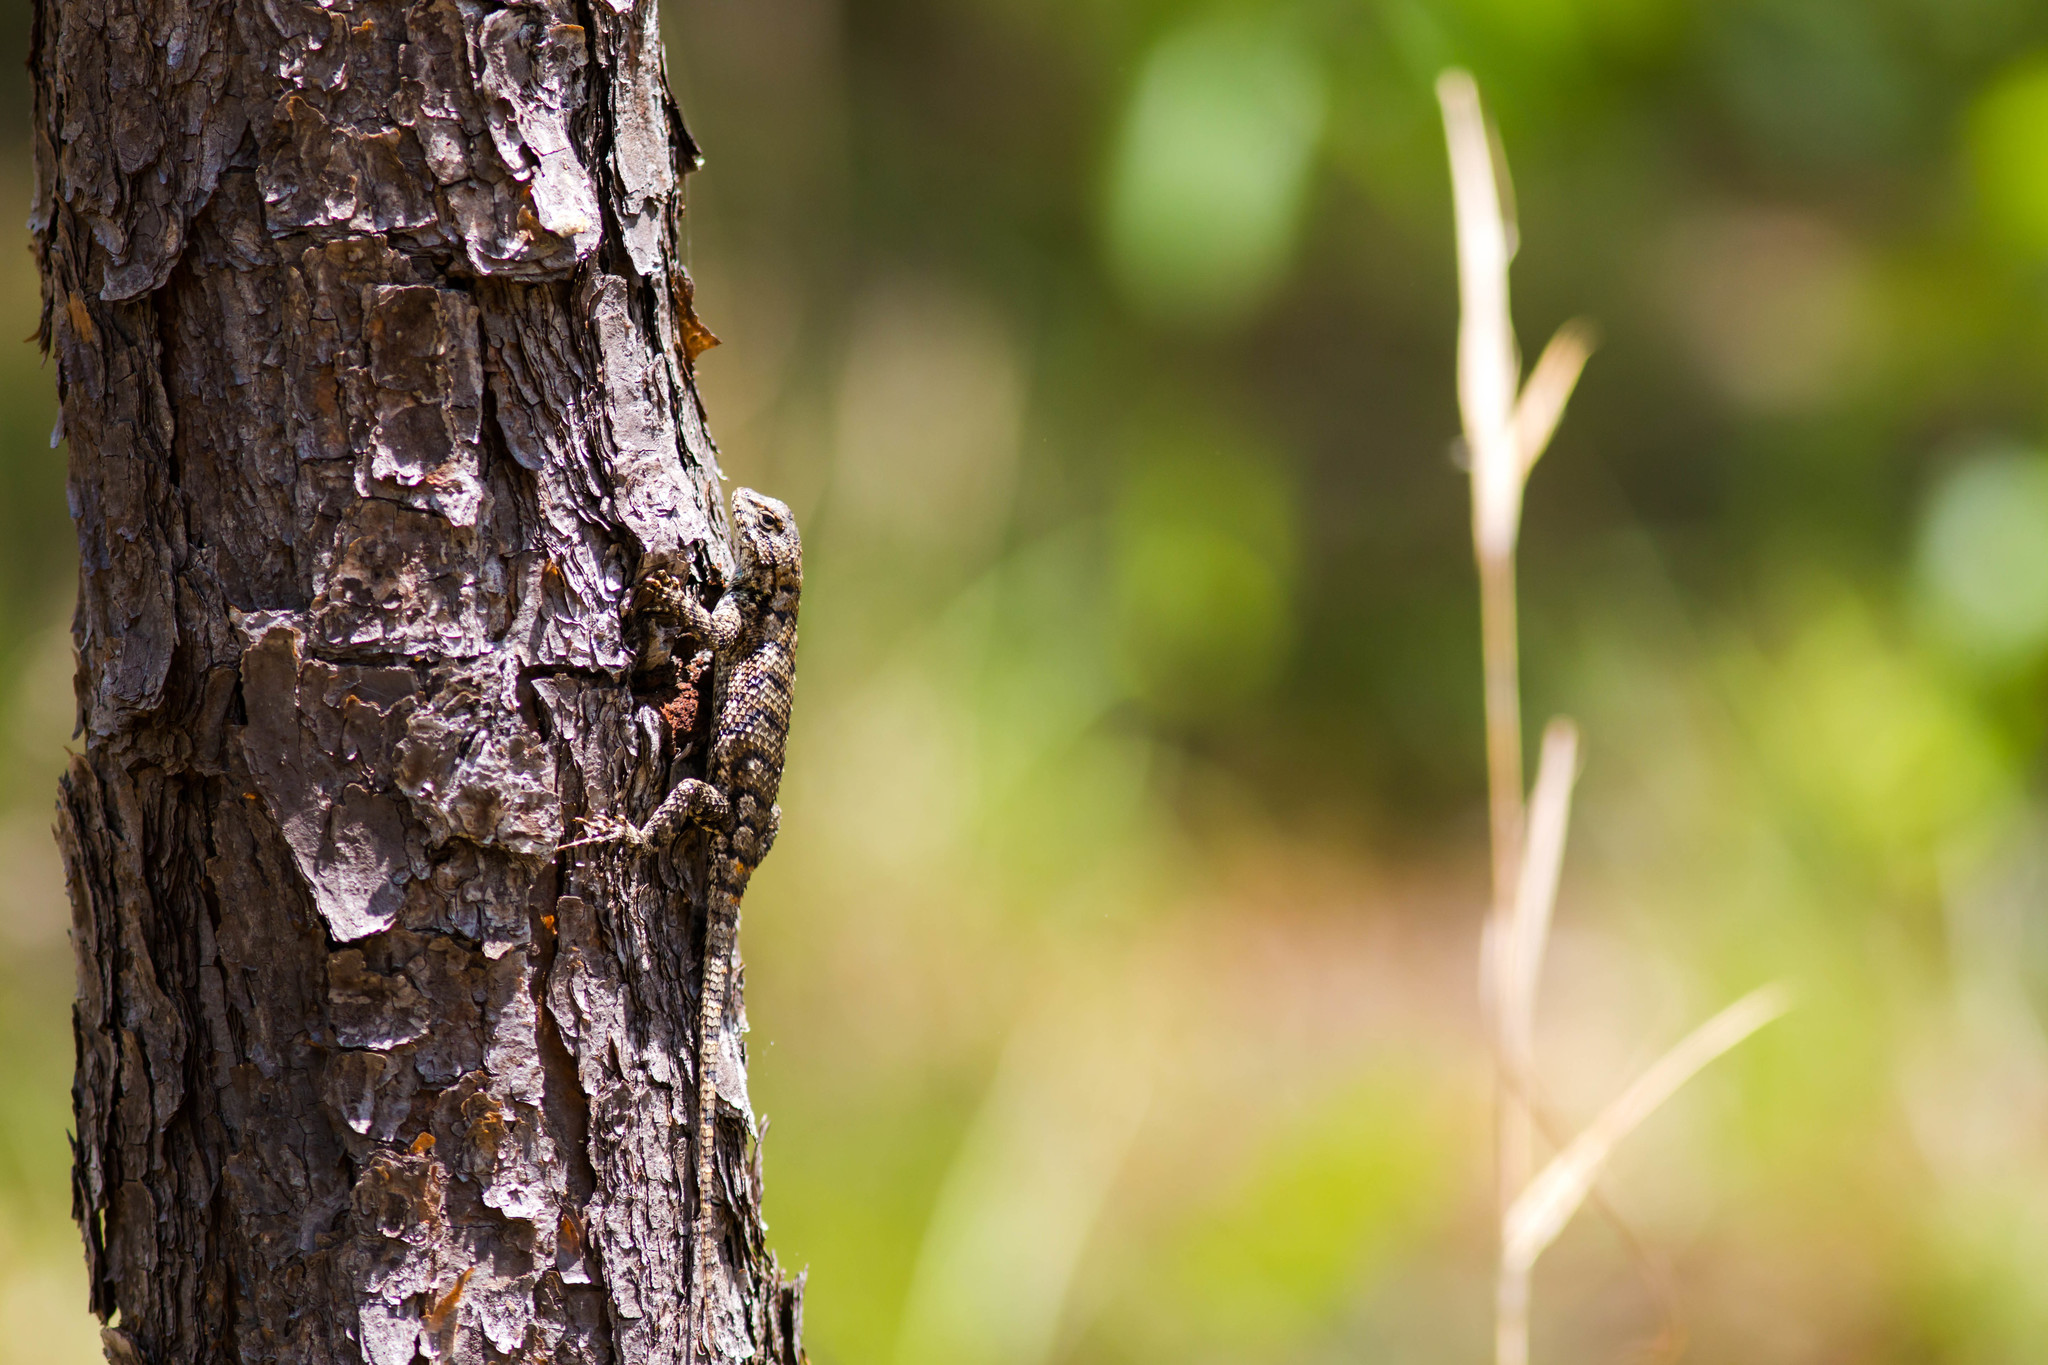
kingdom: Animalia
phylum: Chordata
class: Squamata
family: Phrynosomatidae
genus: Sceloporus
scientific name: Sceloporus undulatus
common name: Eastern fence lizard
